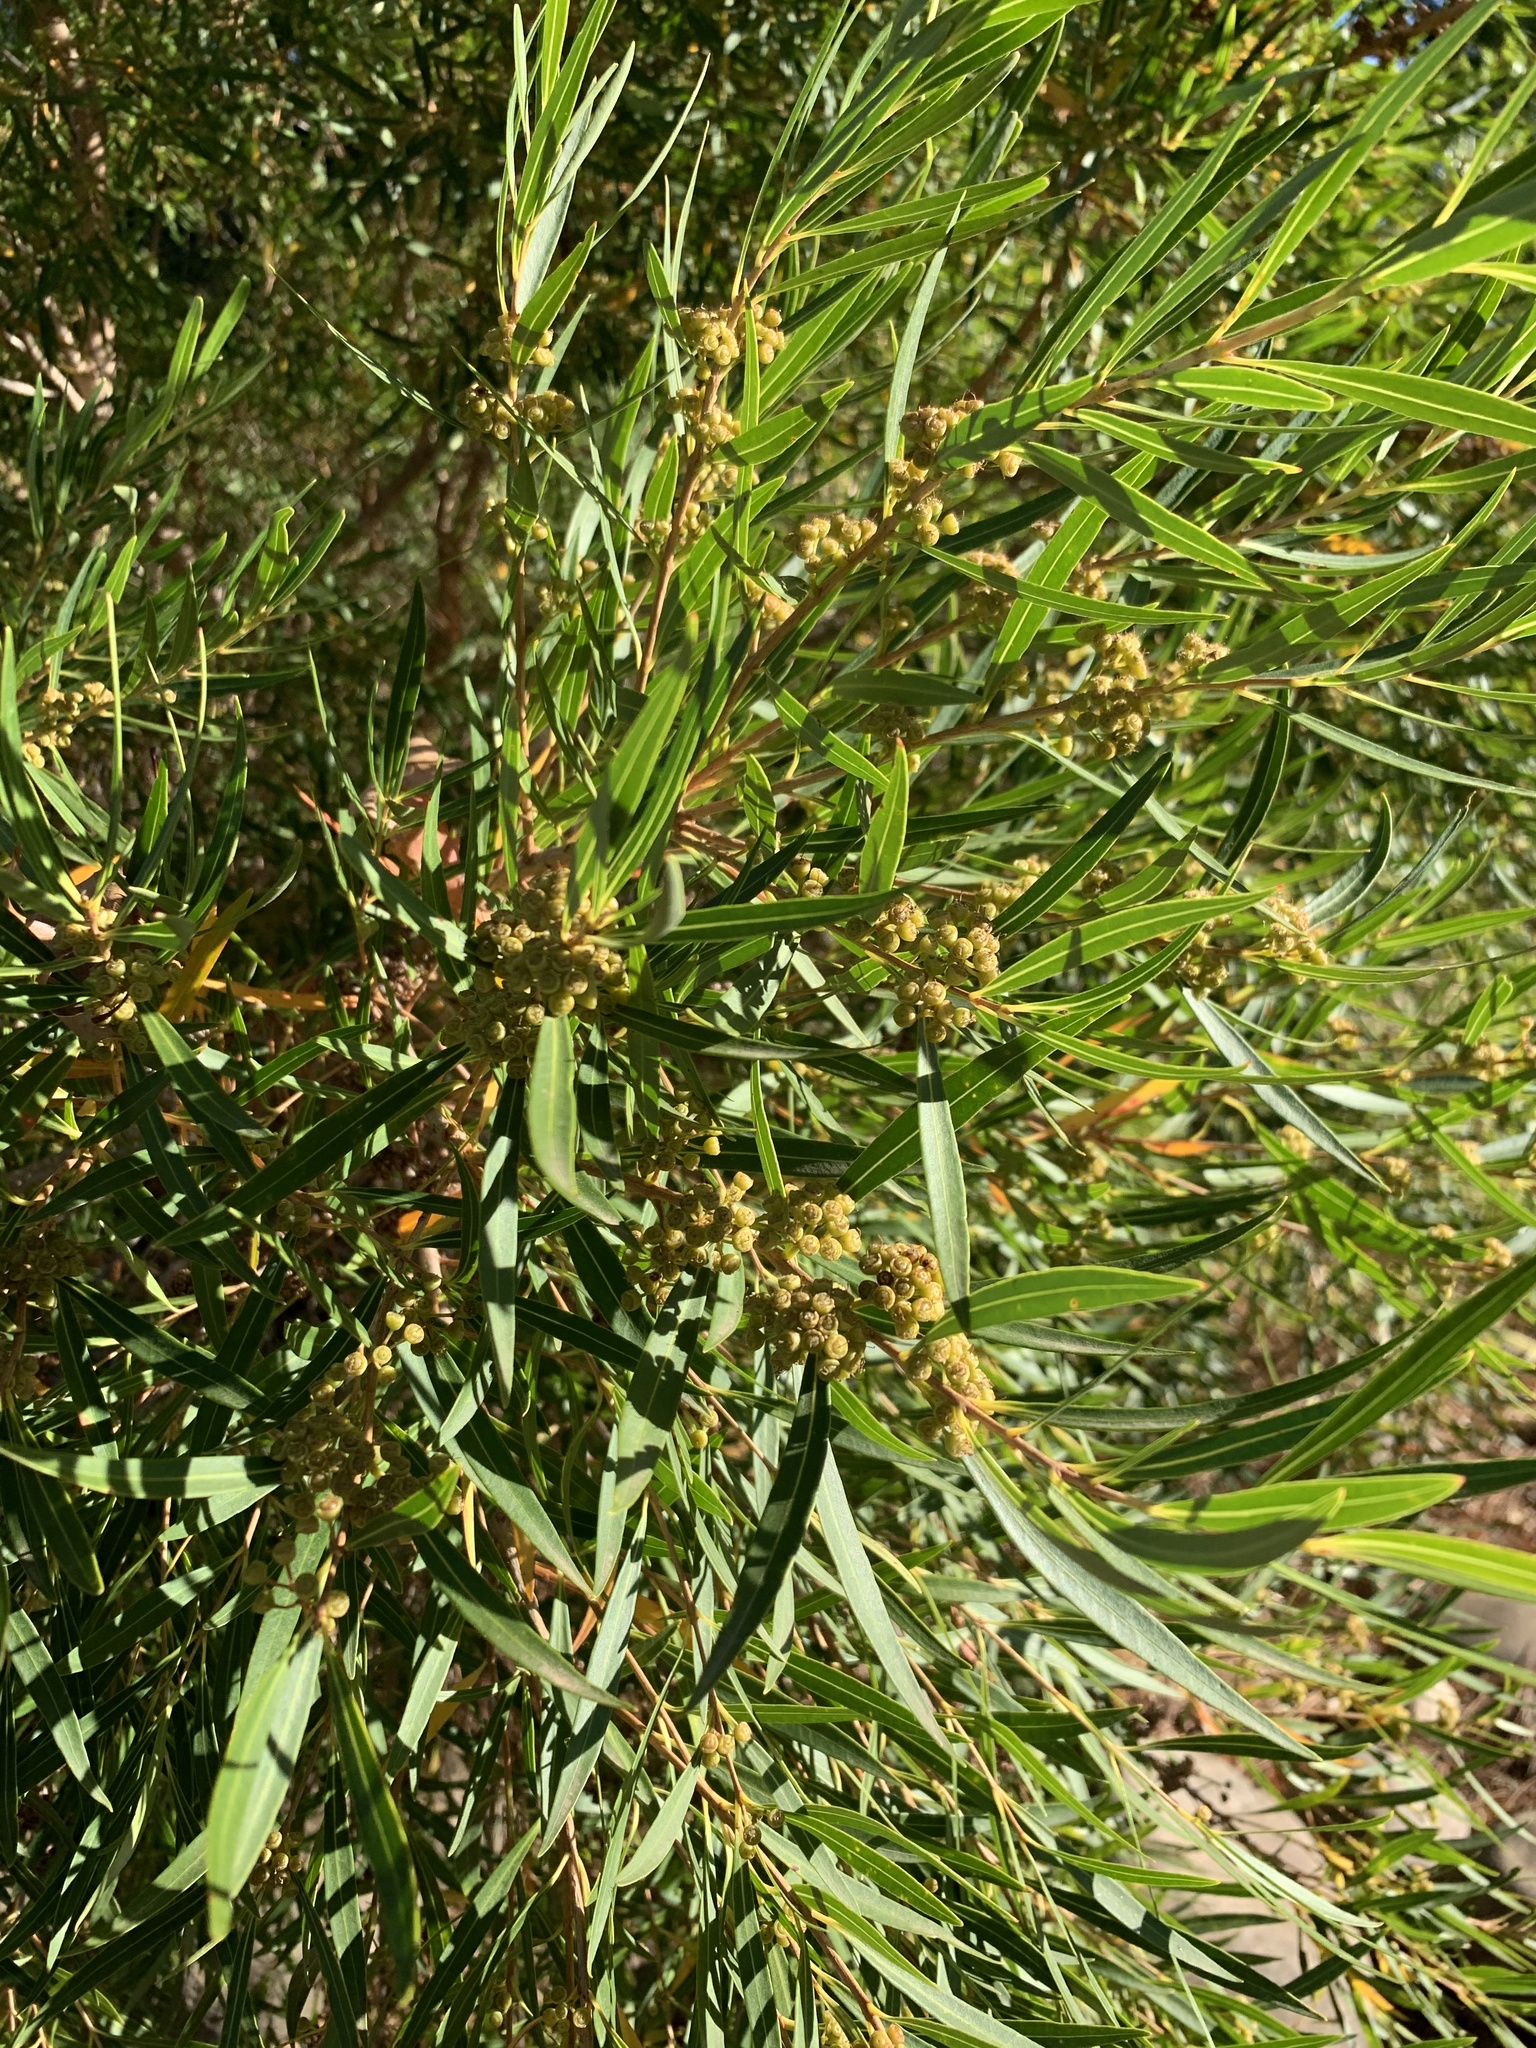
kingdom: Plantae
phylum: Tracheophyta
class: Magnoliopsida
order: Myrtales
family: Myrtaceae
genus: Callistemon
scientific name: Callistemon lanceolatus
